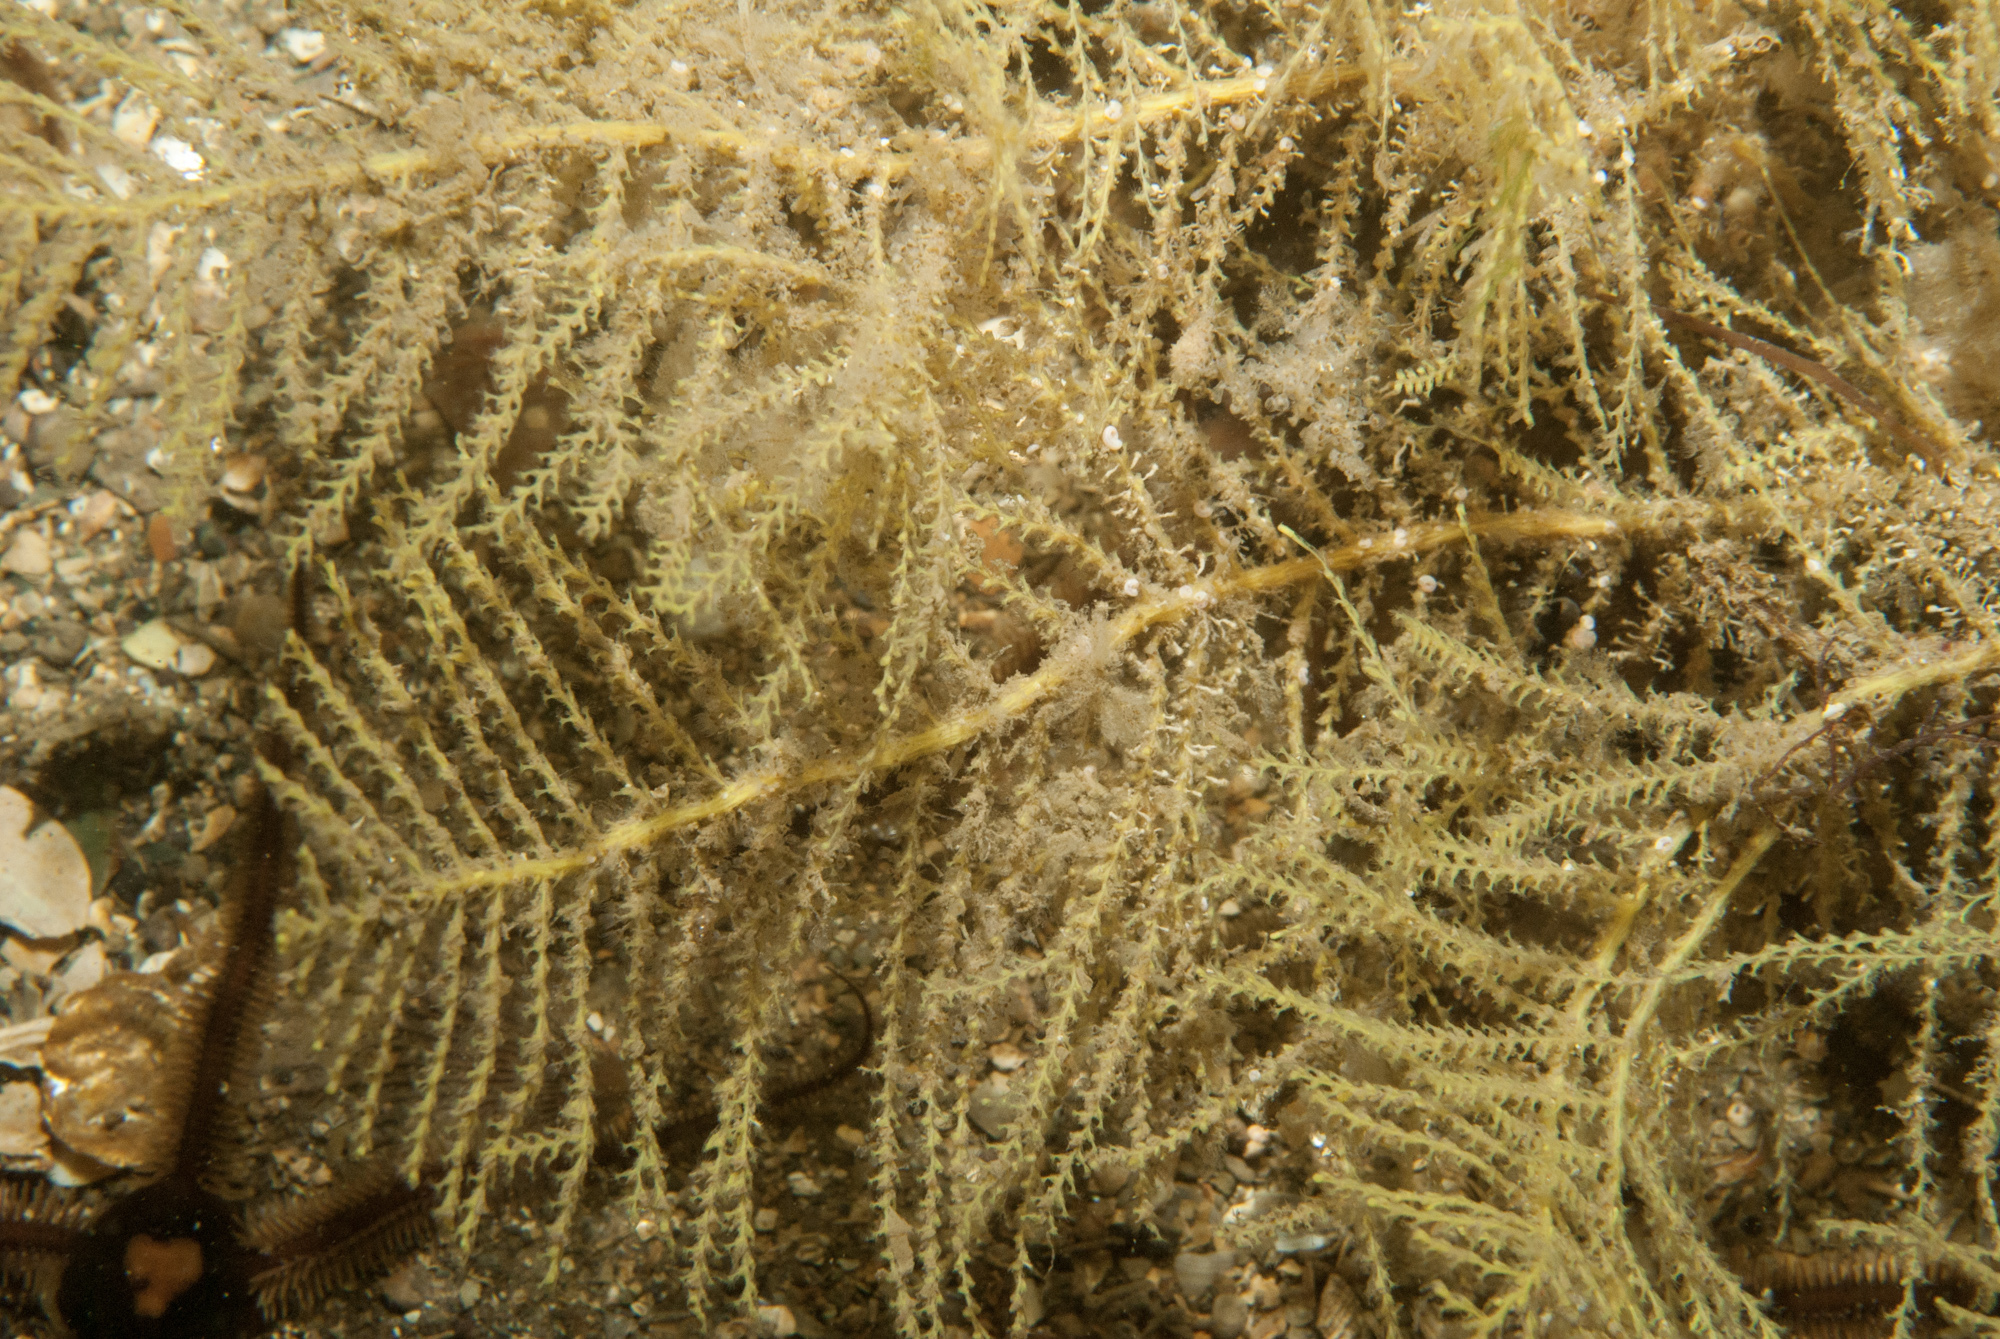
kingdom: Animalia
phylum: Cnidaria
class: Hydrozoa
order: Leptothecata
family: Sertularellidae
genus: Sertularella
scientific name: Sertularella gayi
